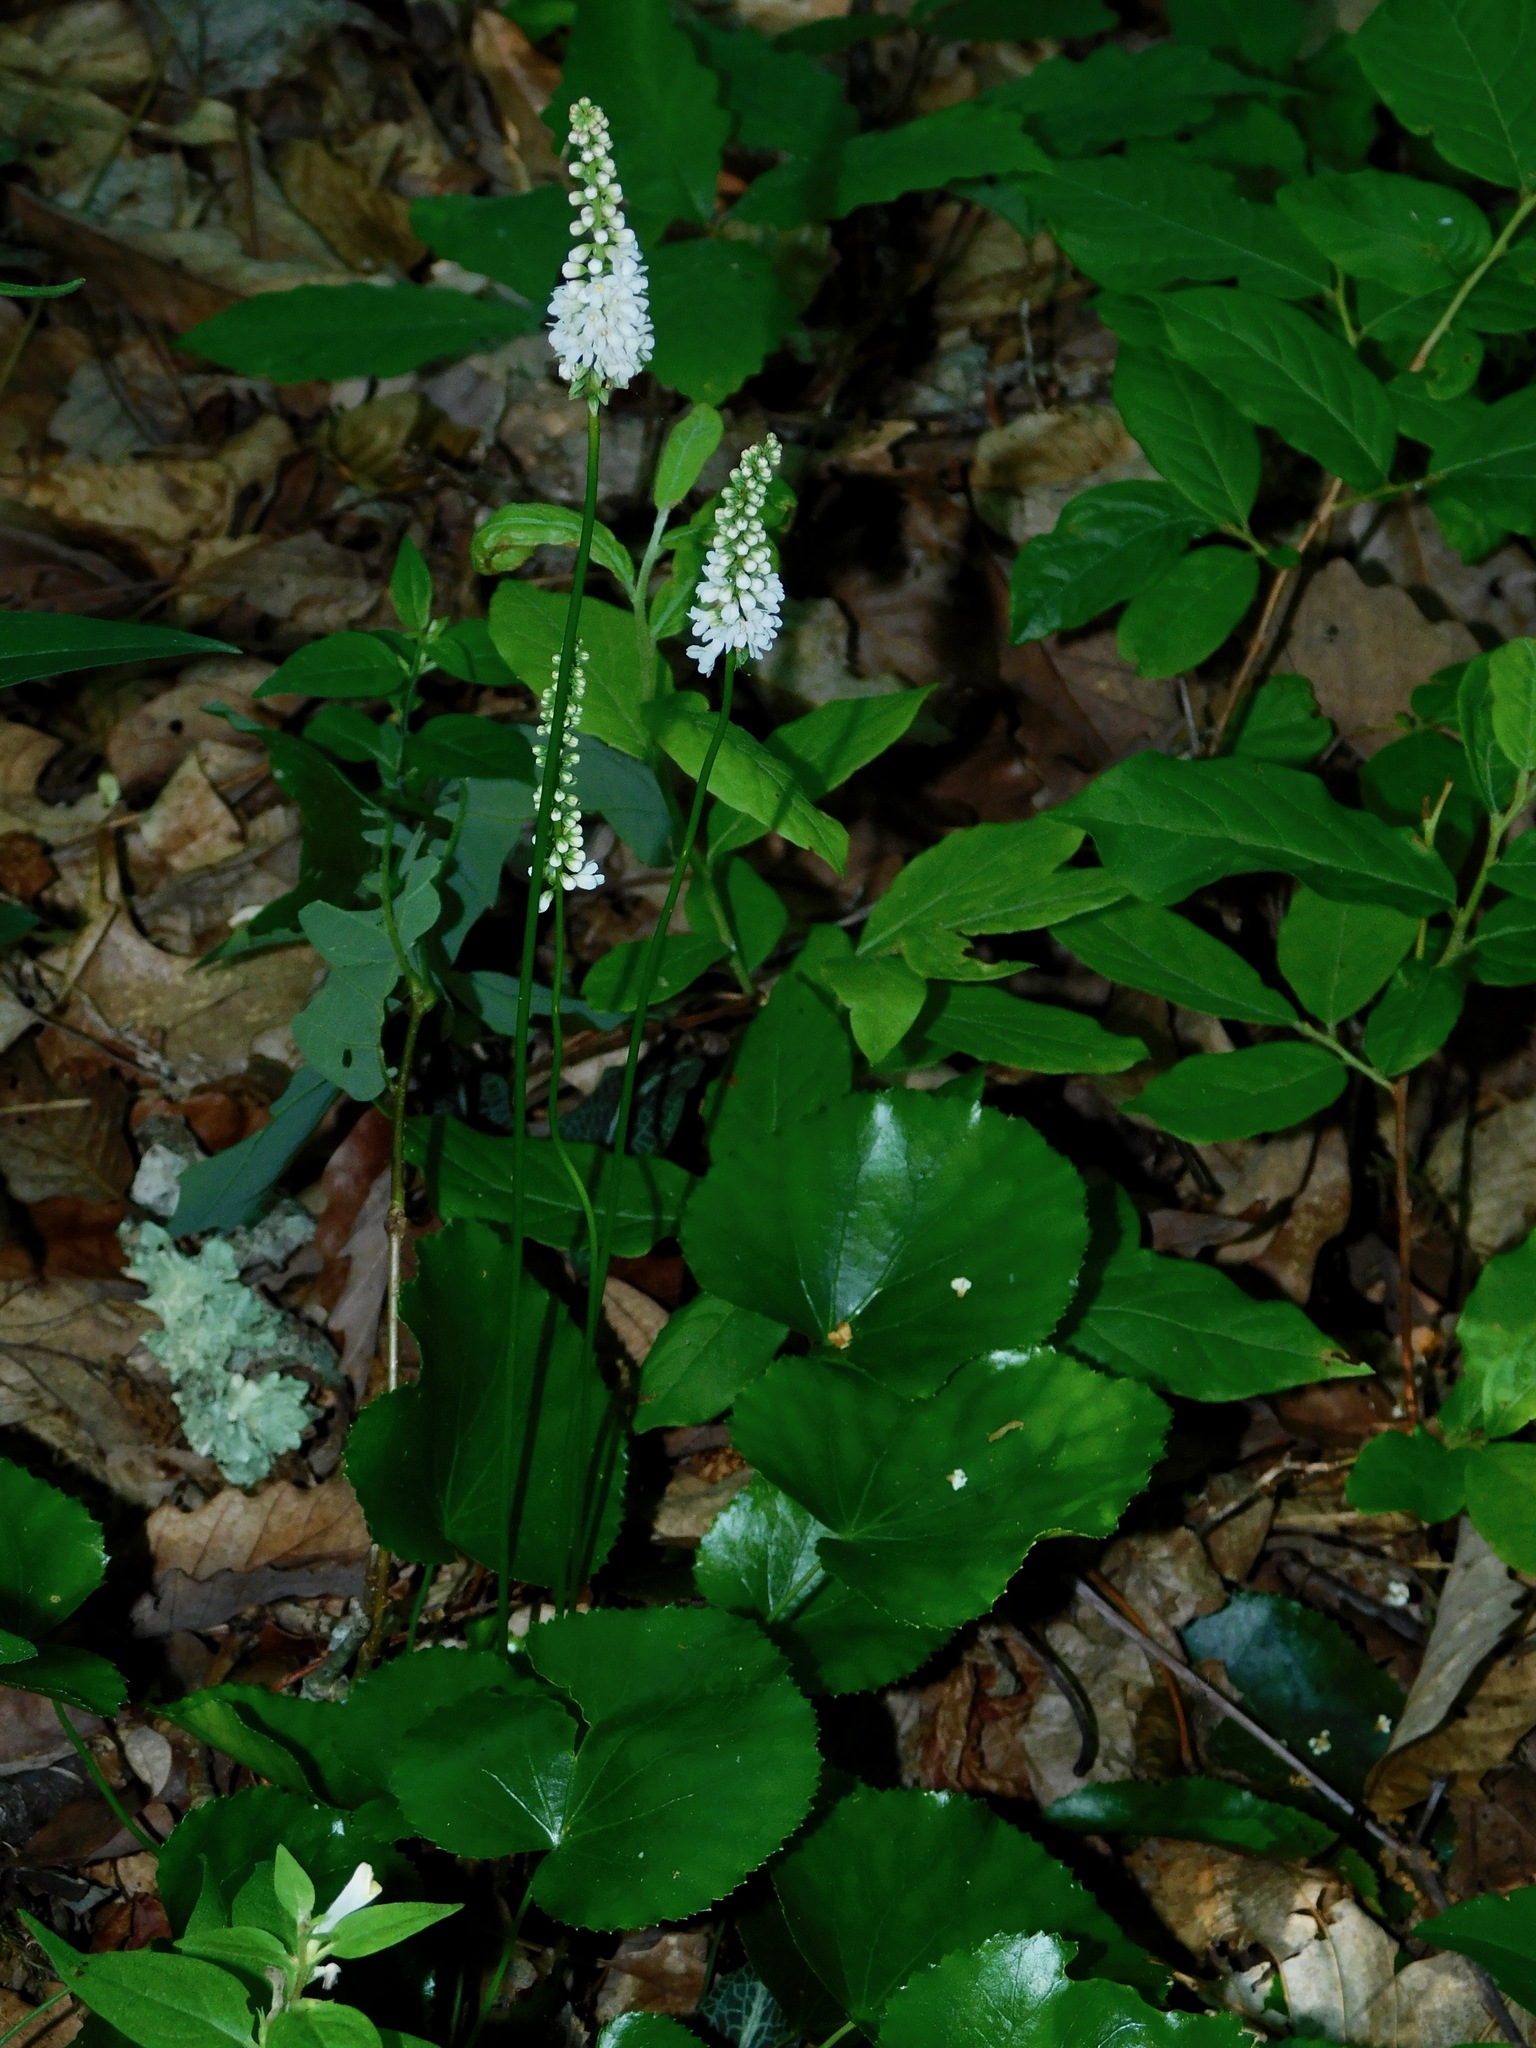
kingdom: Plantae
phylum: Tracheophyta
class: Magnoliopsida
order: Ericales
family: Diapensiaceae
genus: Galax
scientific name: Galax urceolata
